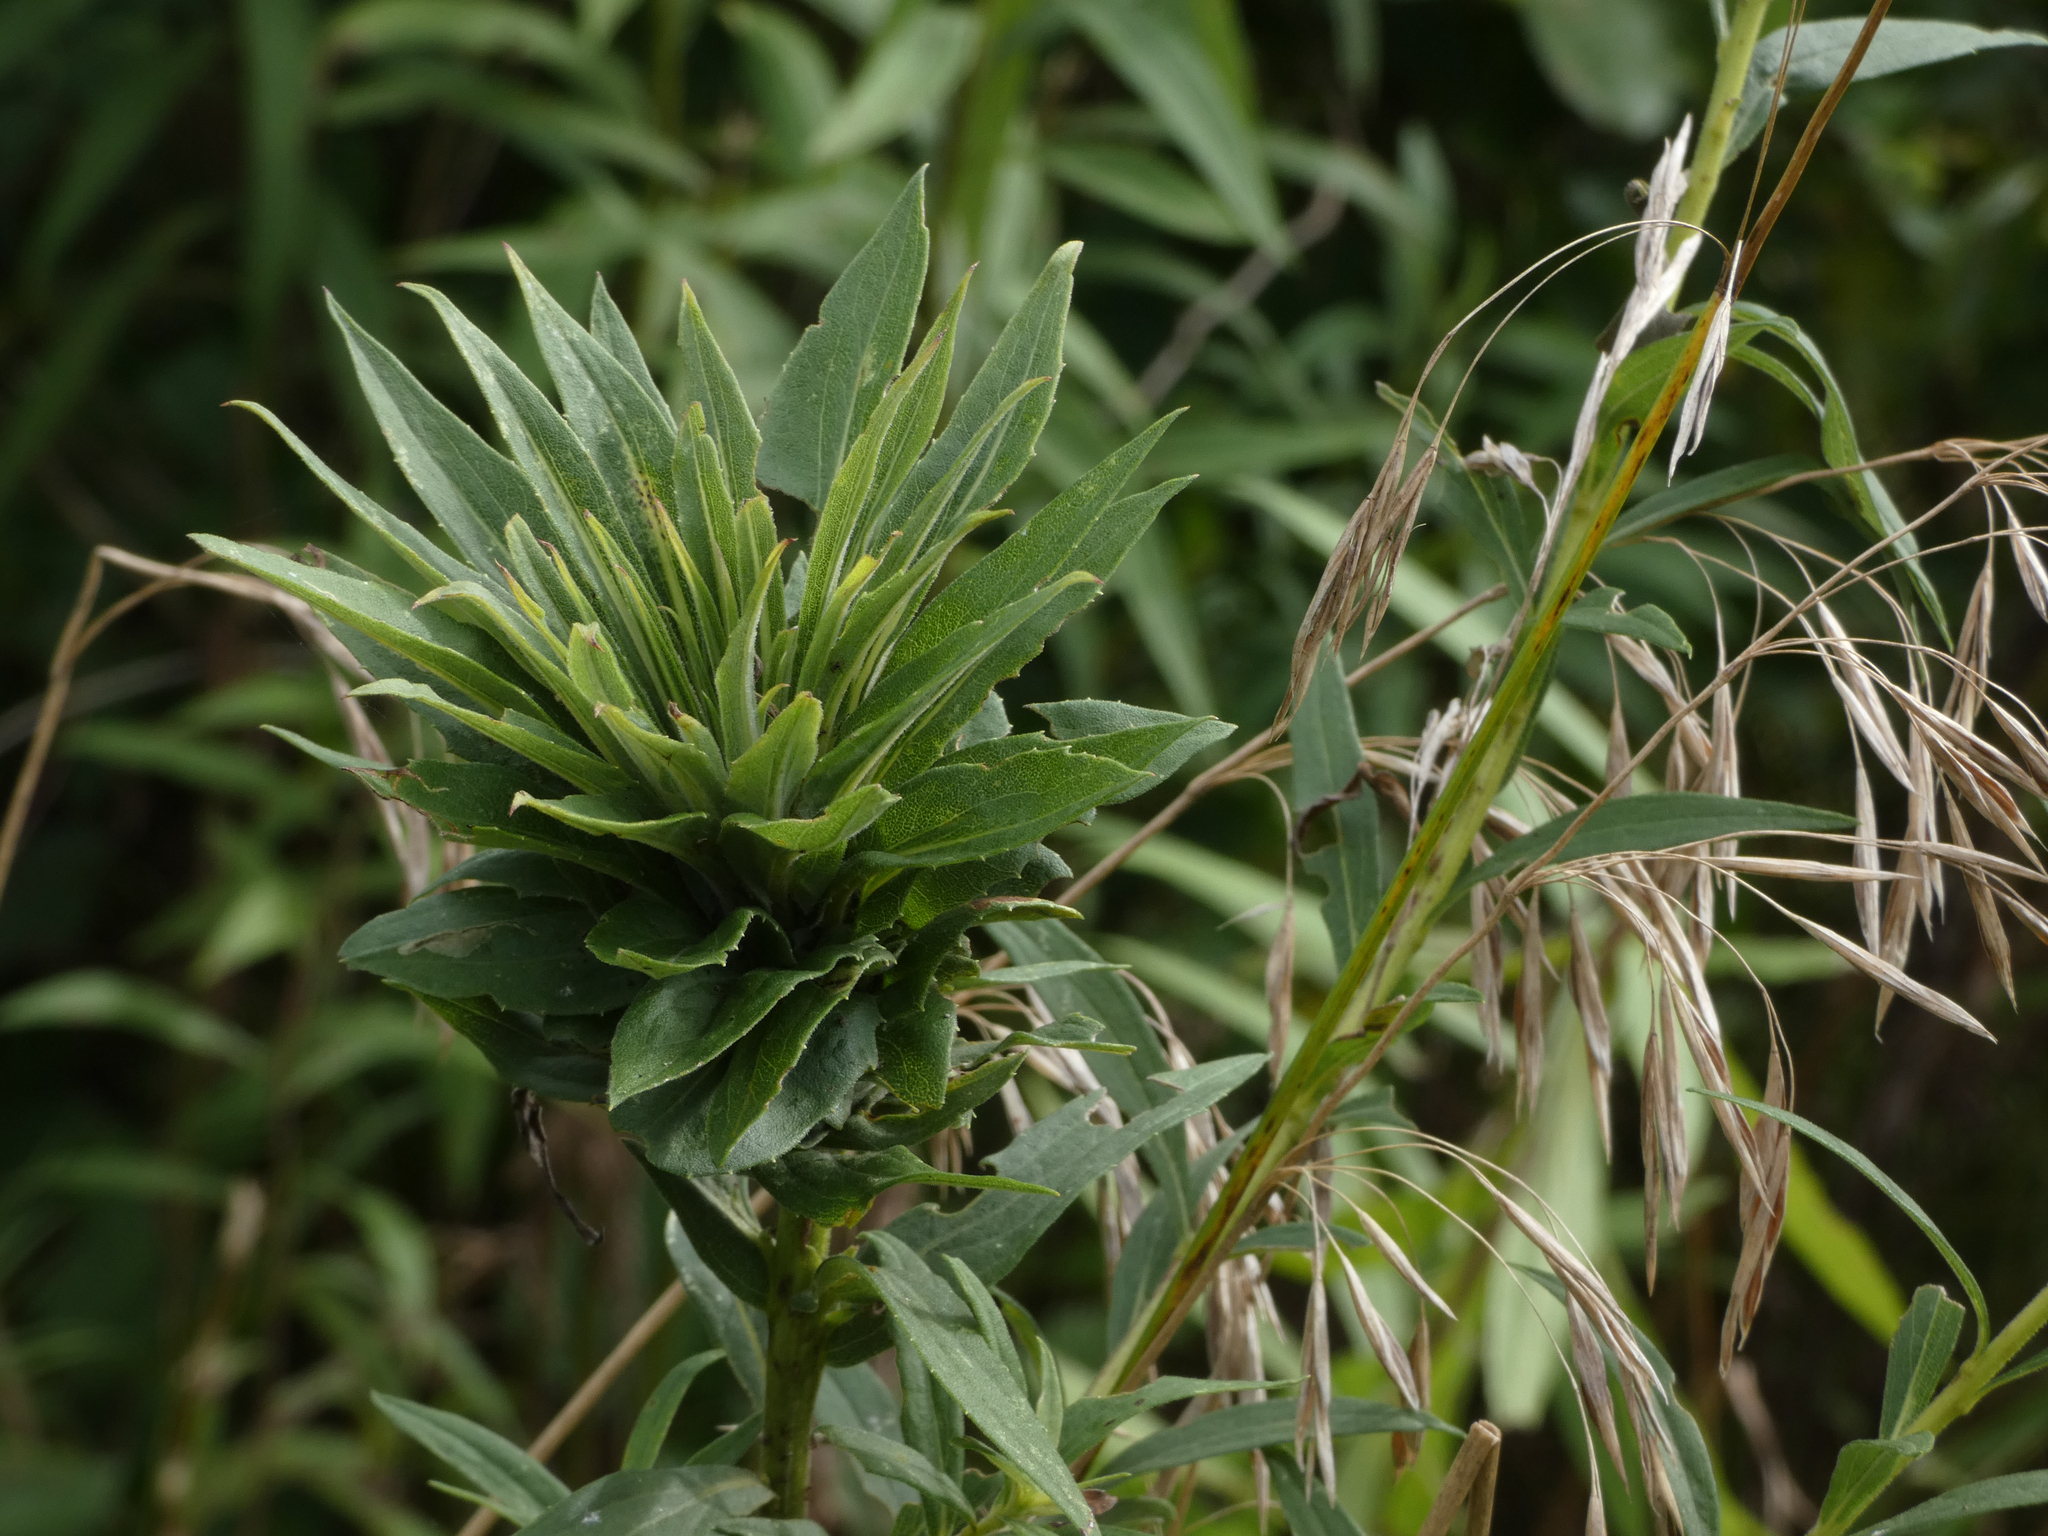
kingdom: Animalia
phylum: Arthropoda
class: Insecta
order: Diptera
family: Cecidomyiidae
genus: Rhopalomyia
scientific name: Rhopalomyia solidaginis
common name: Goldenrod bunch gall midge
